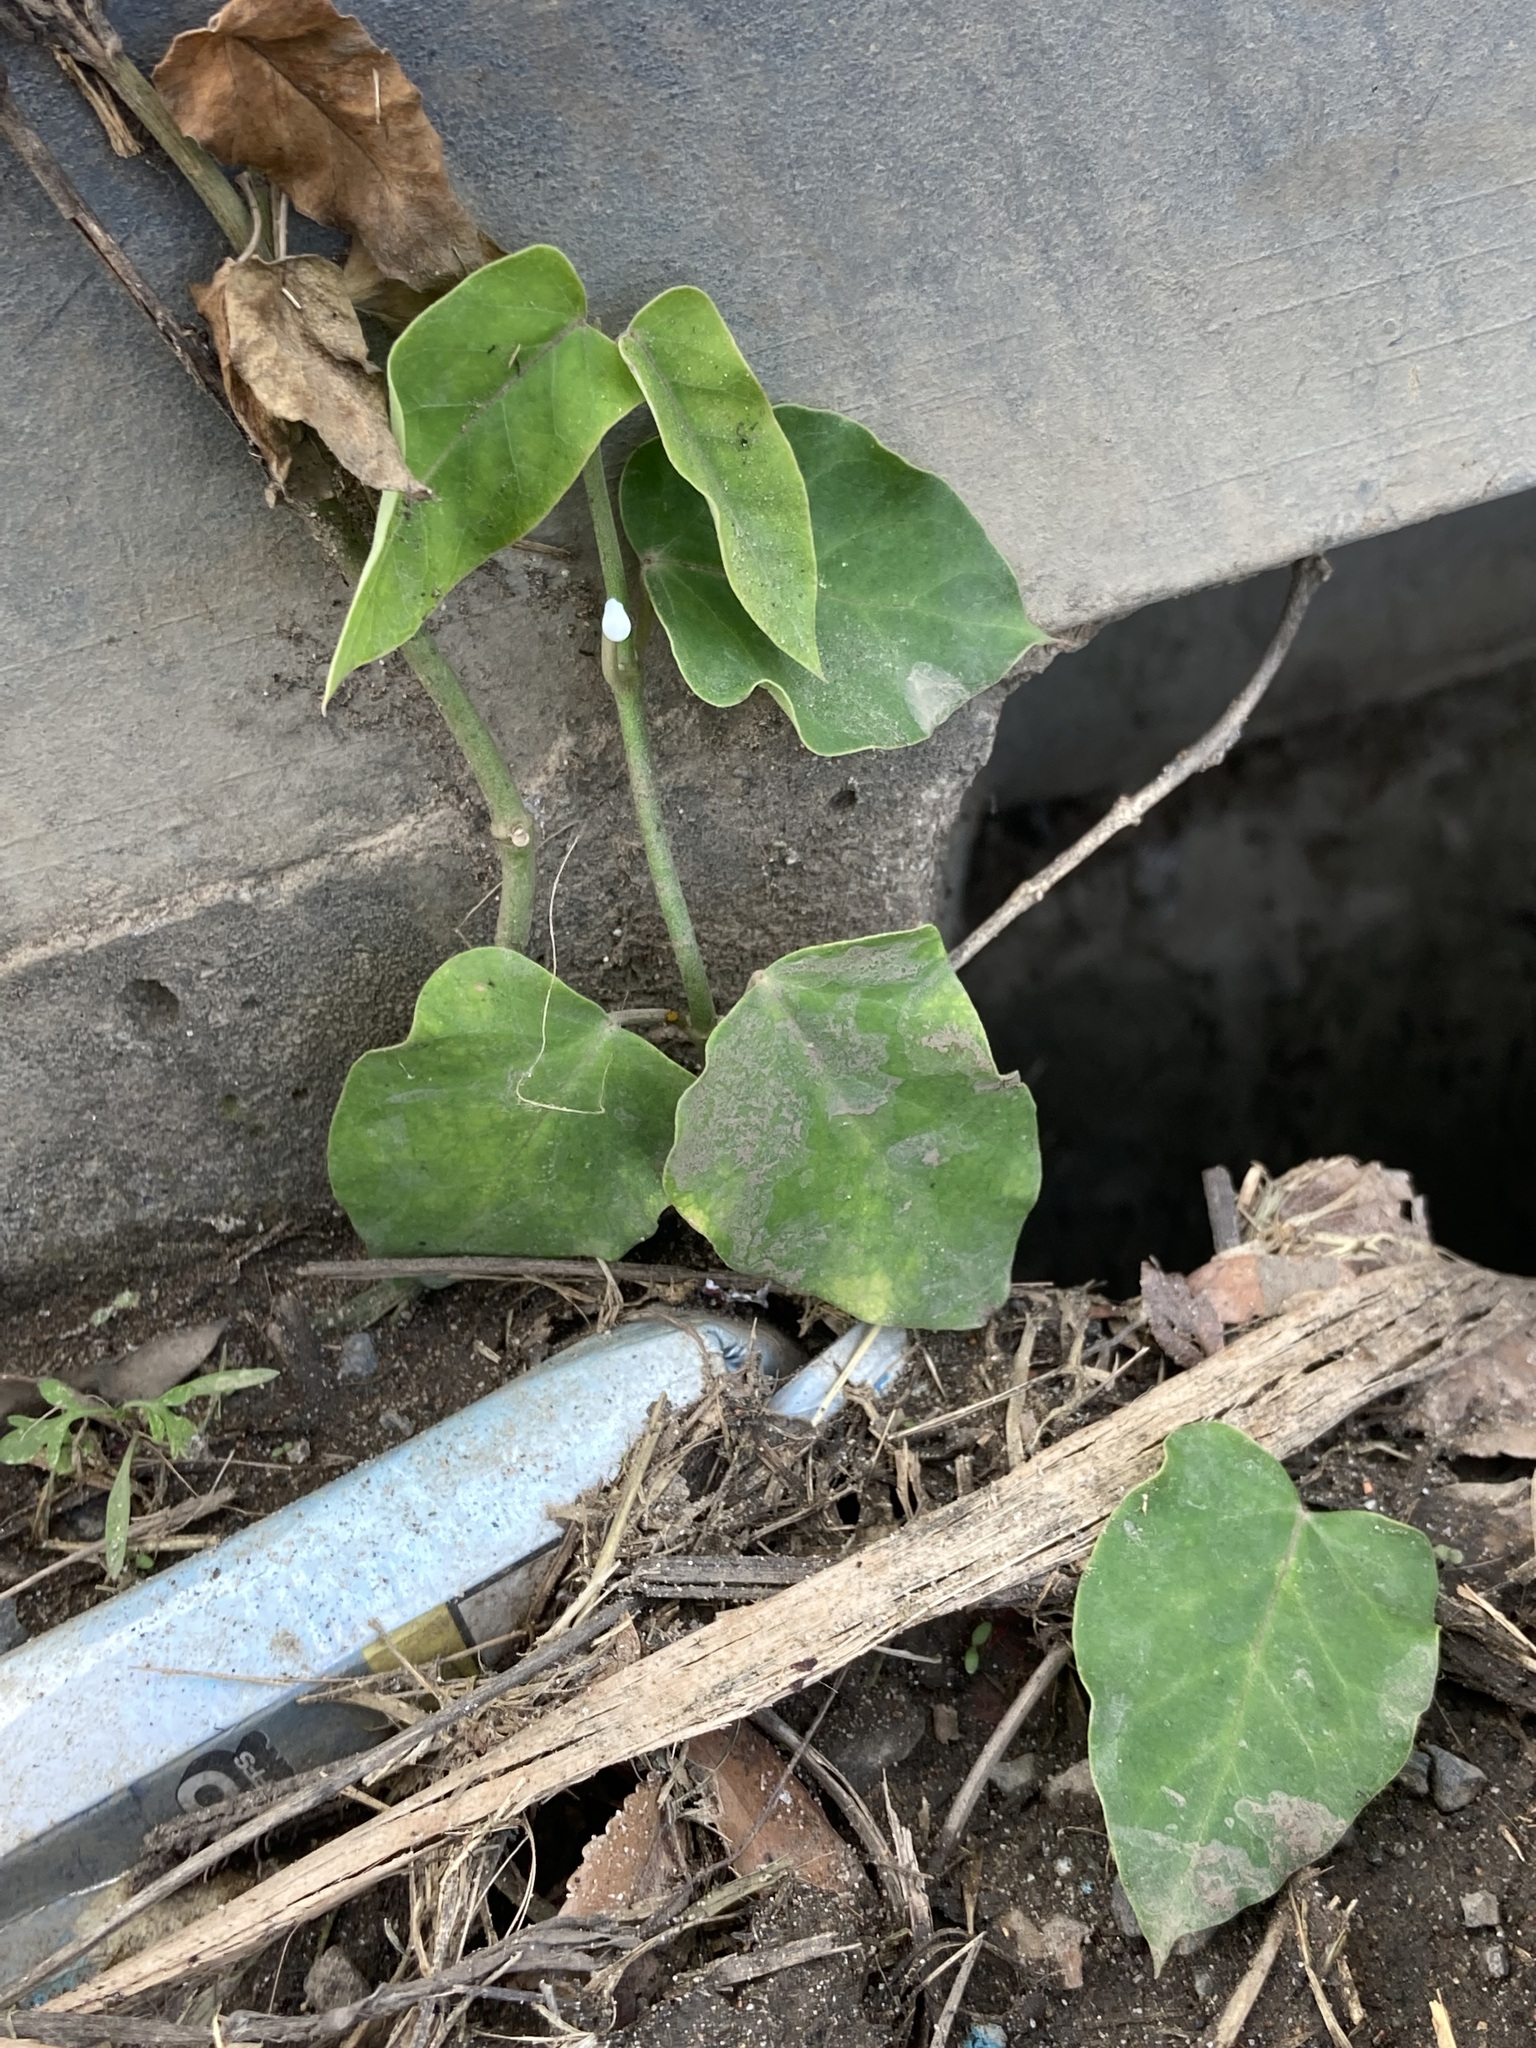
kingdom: Plantae
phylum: Tracheophyta
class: Magnoliopsida
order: Gentianales
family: Apocynaceae
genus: Araujia
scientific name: Araujia sericifera
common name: White bladderflower
